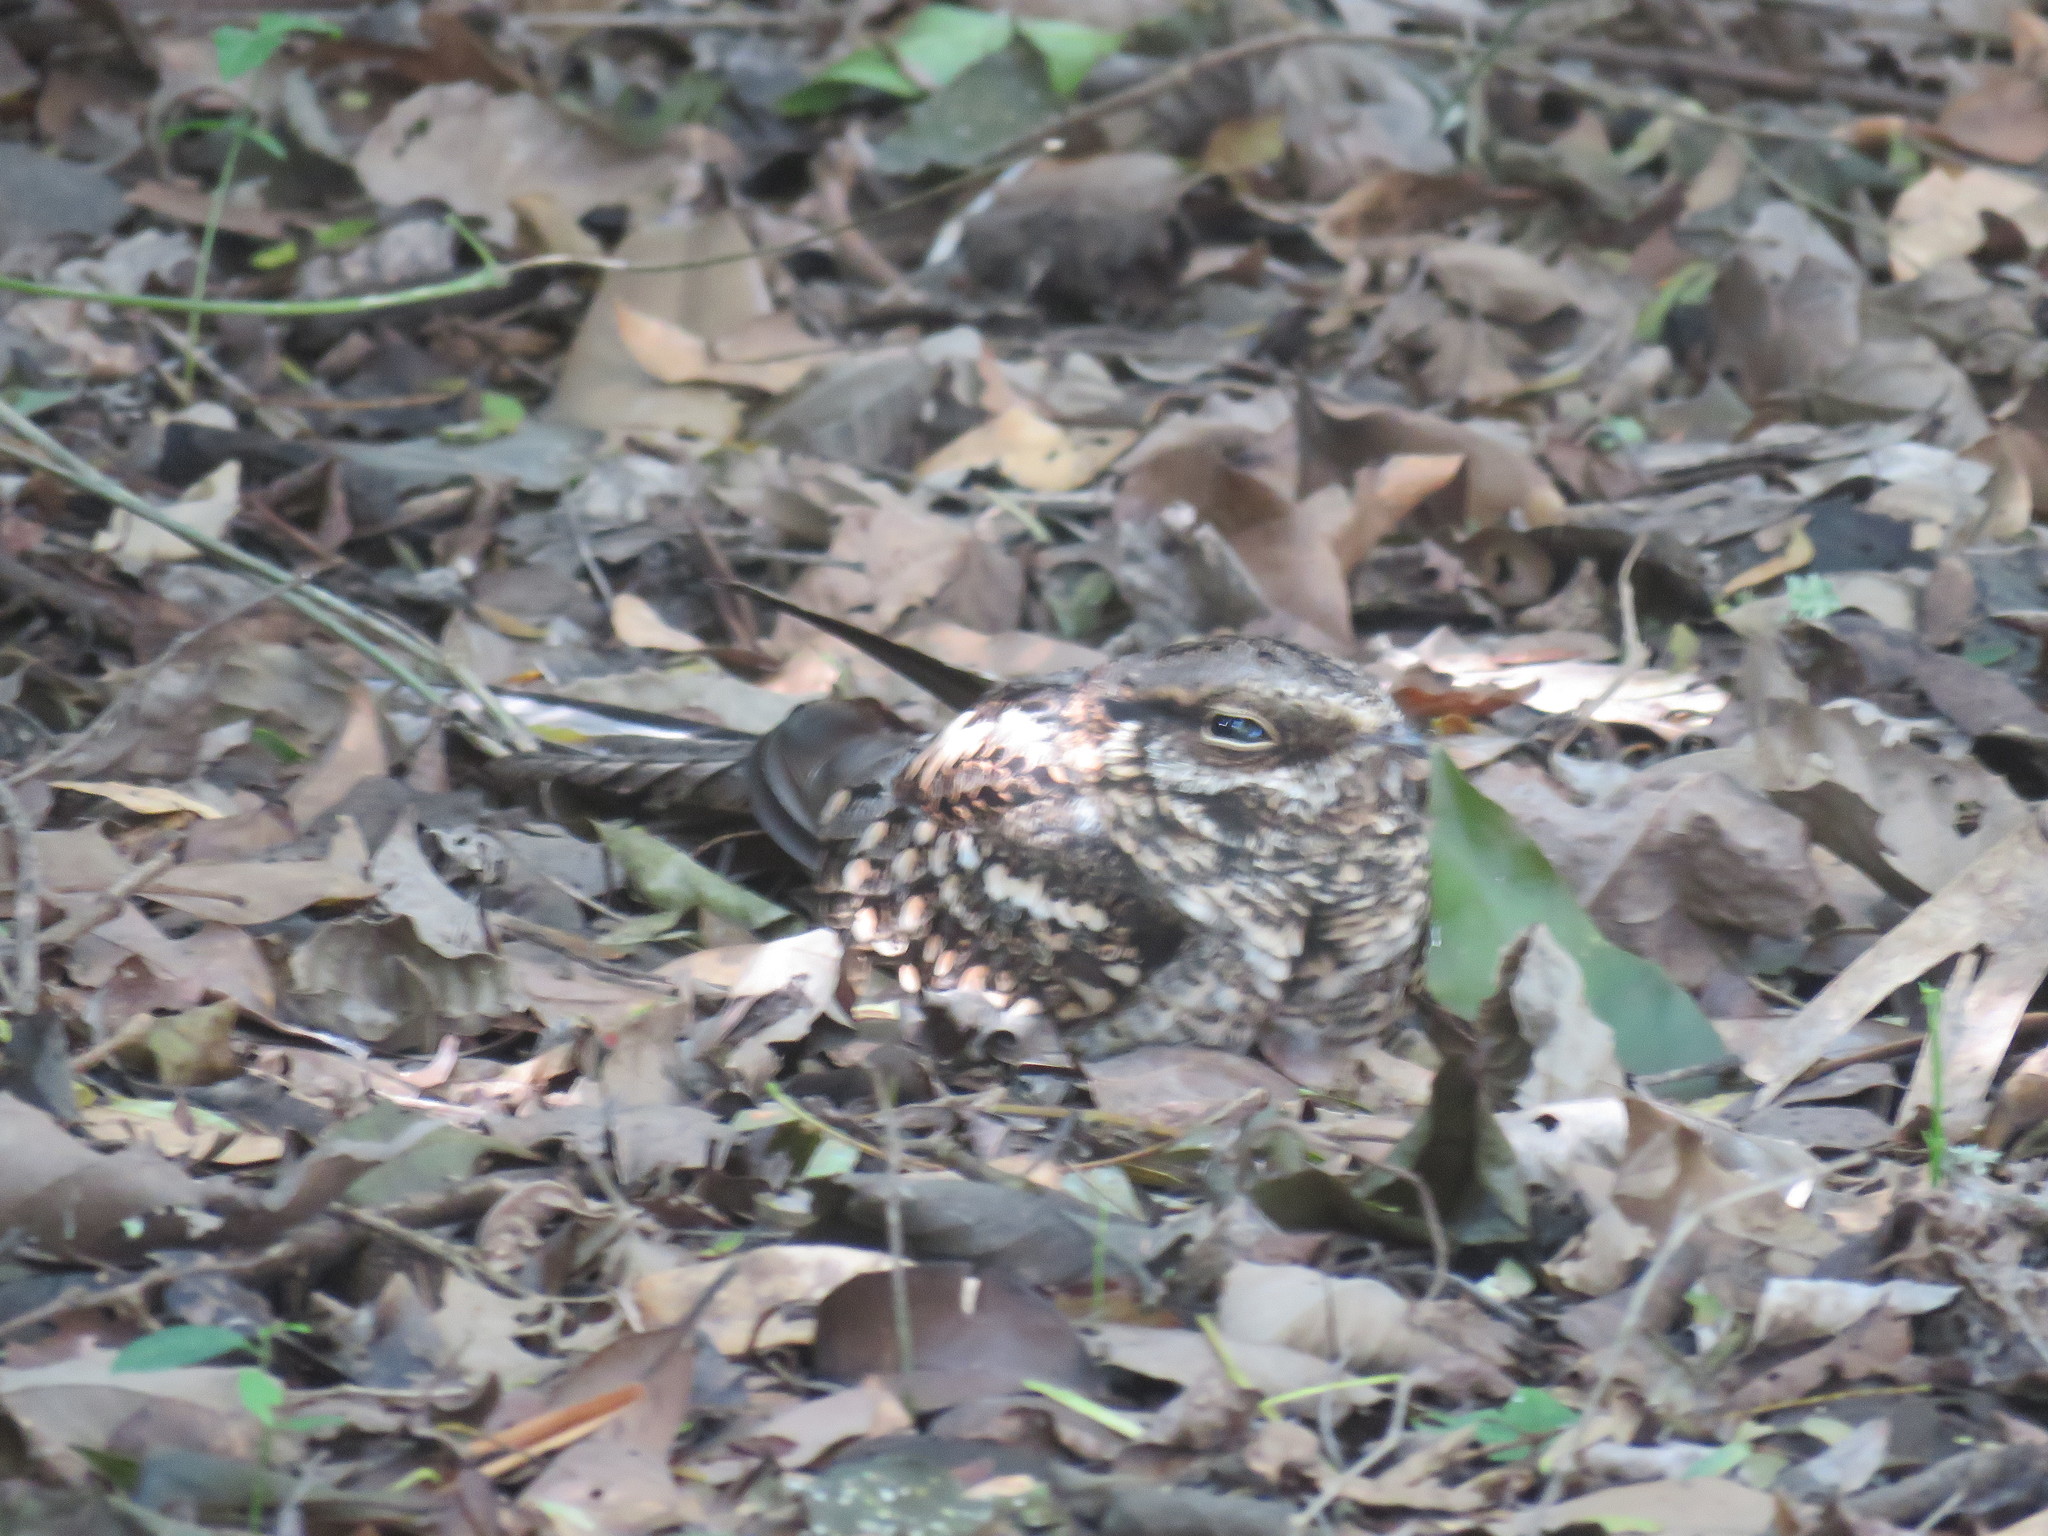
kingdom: Animalia
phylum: Chordata
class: Aves
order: Caprimulgiformes
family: Caprimulgidae
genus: Hydropsalis
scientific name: Hydropsalis torquata
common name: Scissor-tailed nightjar
